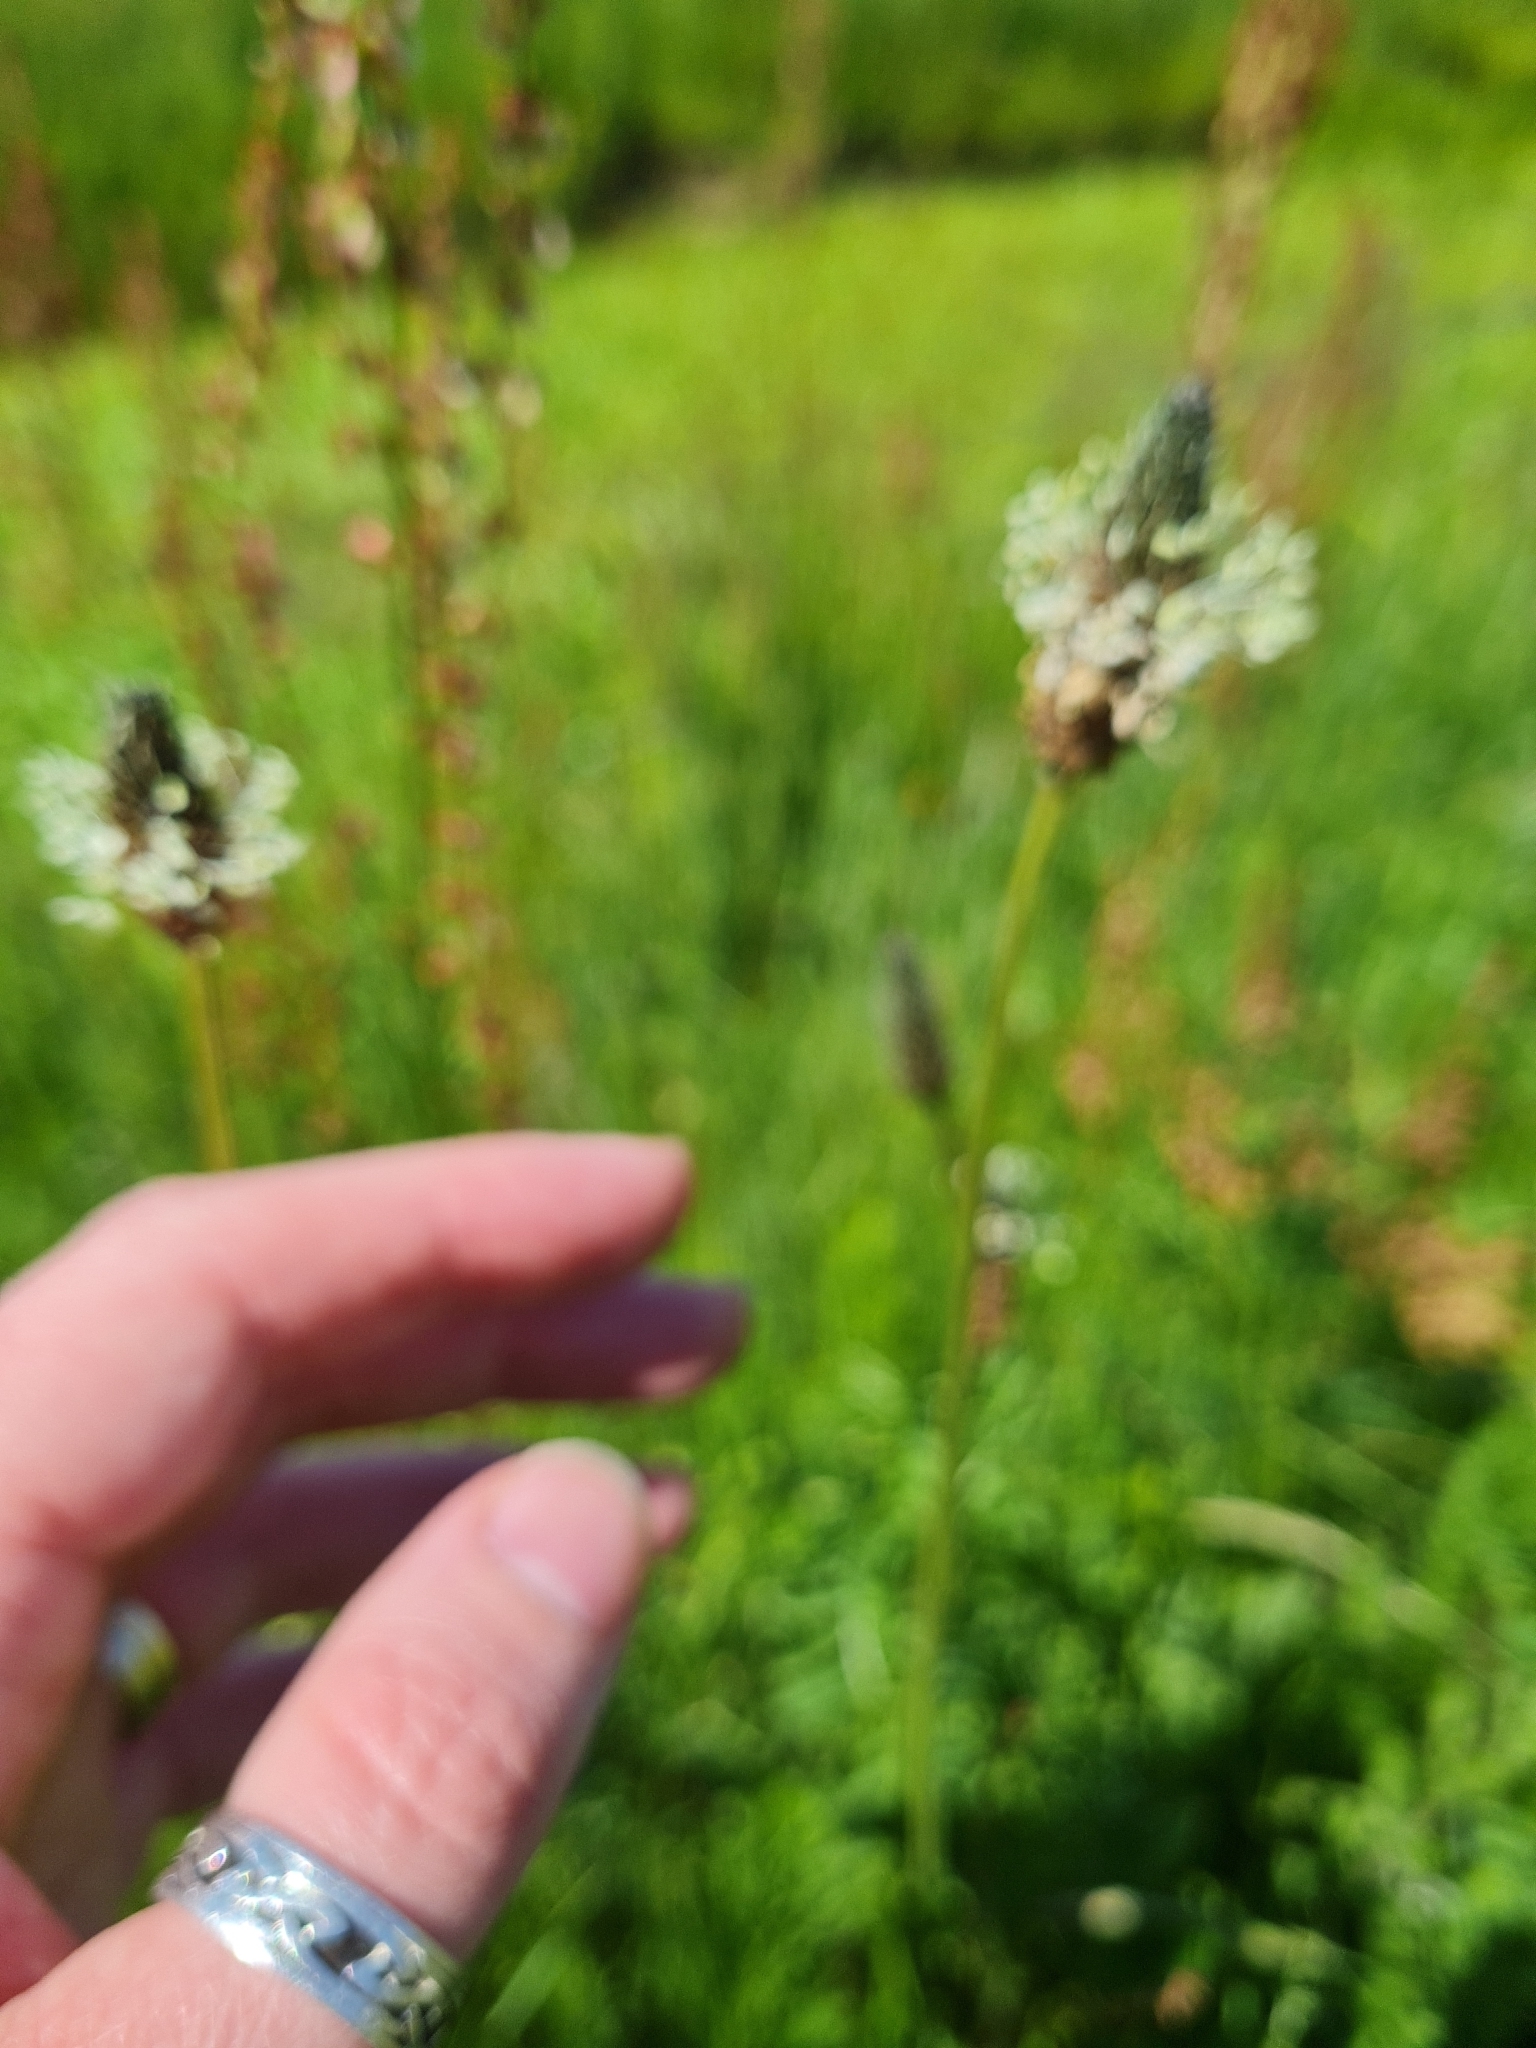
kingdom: Plantae
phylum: Tracheophyta
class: Magnoliopsida
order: Lamiales
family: Plantaginaceae
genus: Plantago
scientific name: Plantago lanceolata
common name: Ribwort plantain
